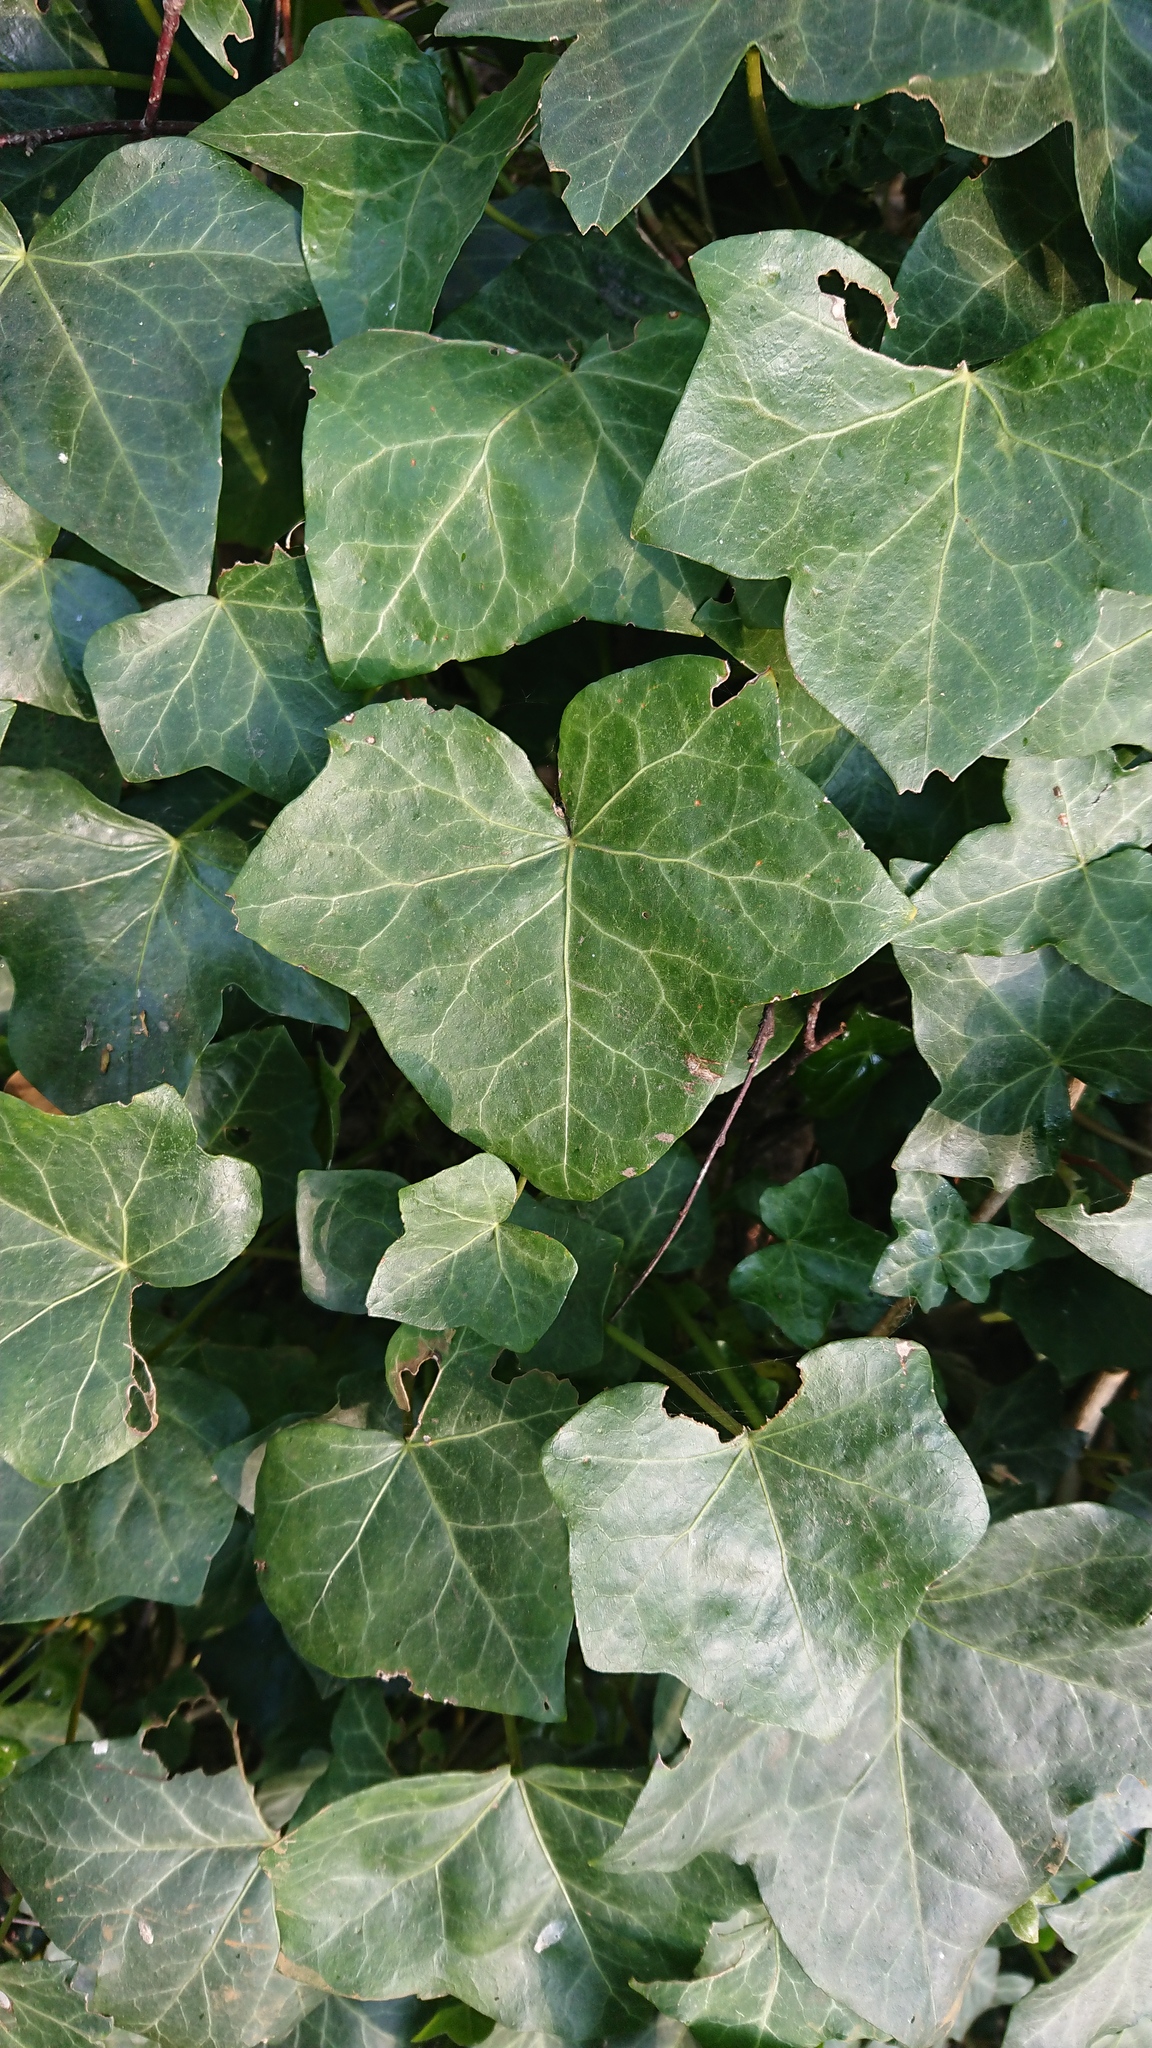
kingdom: Plantae
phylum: Tracheophyta
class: Magnoliopsida
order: Apiales
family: Araliaceae
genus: Hedera
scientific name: Hedera helix
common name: Ivy
